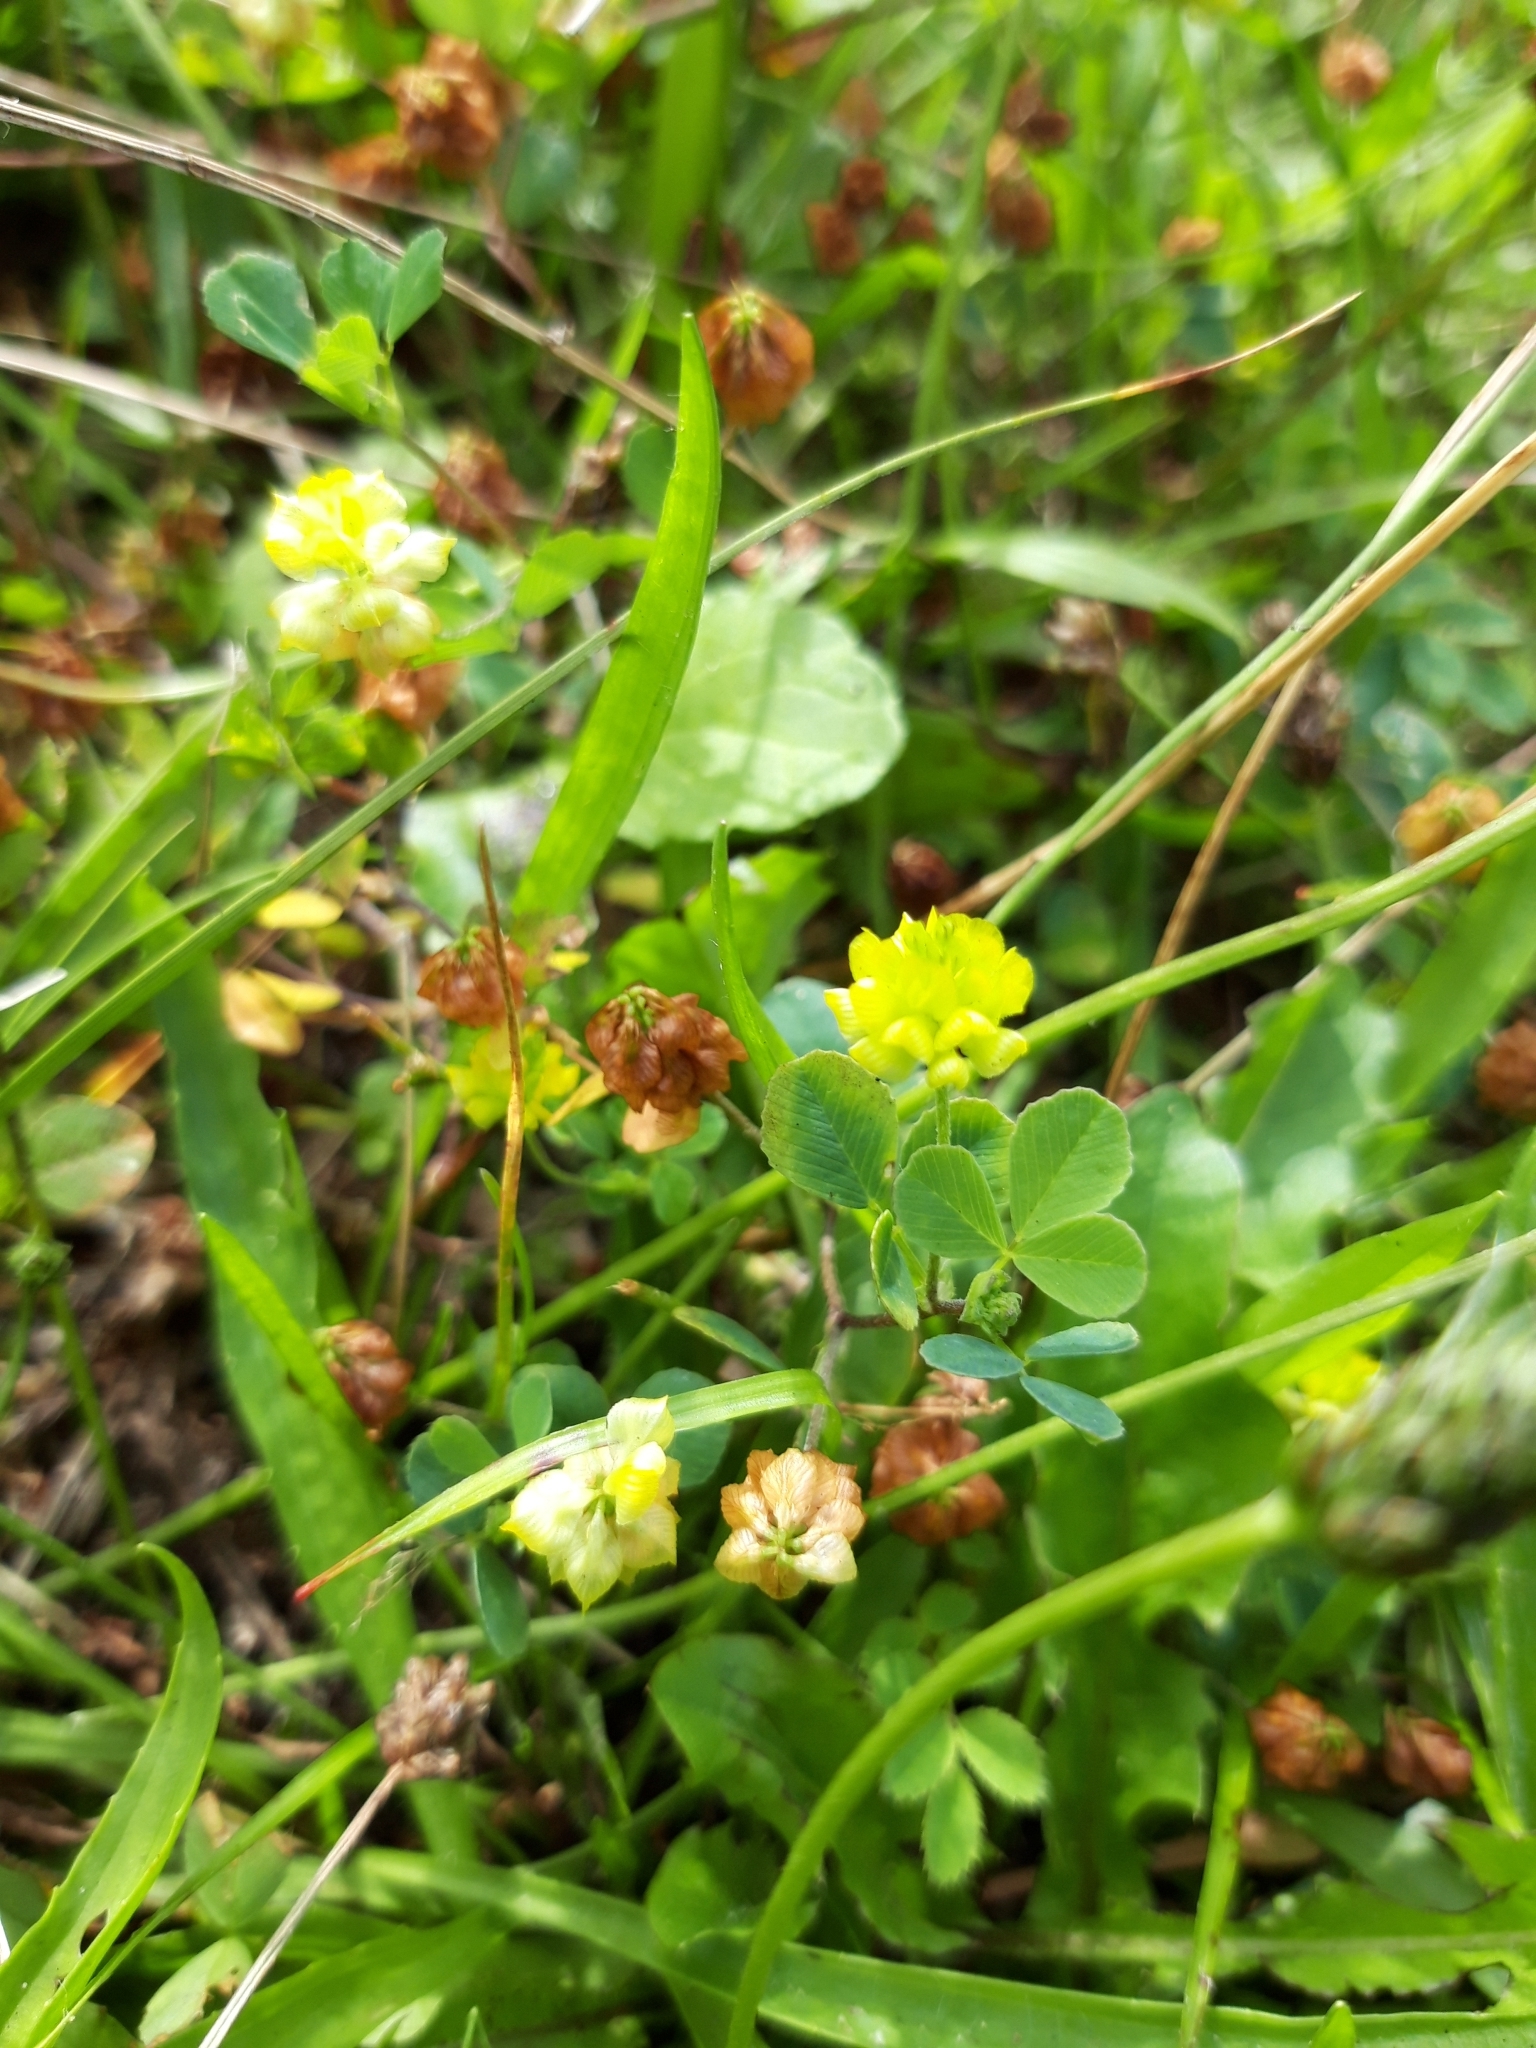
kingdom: Plantae
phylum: Tracheophyta
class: Magnoliopsida
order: Fabales
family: Fabaceae
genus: Trifolium
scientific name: Trifolium campestre
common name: Field clover
